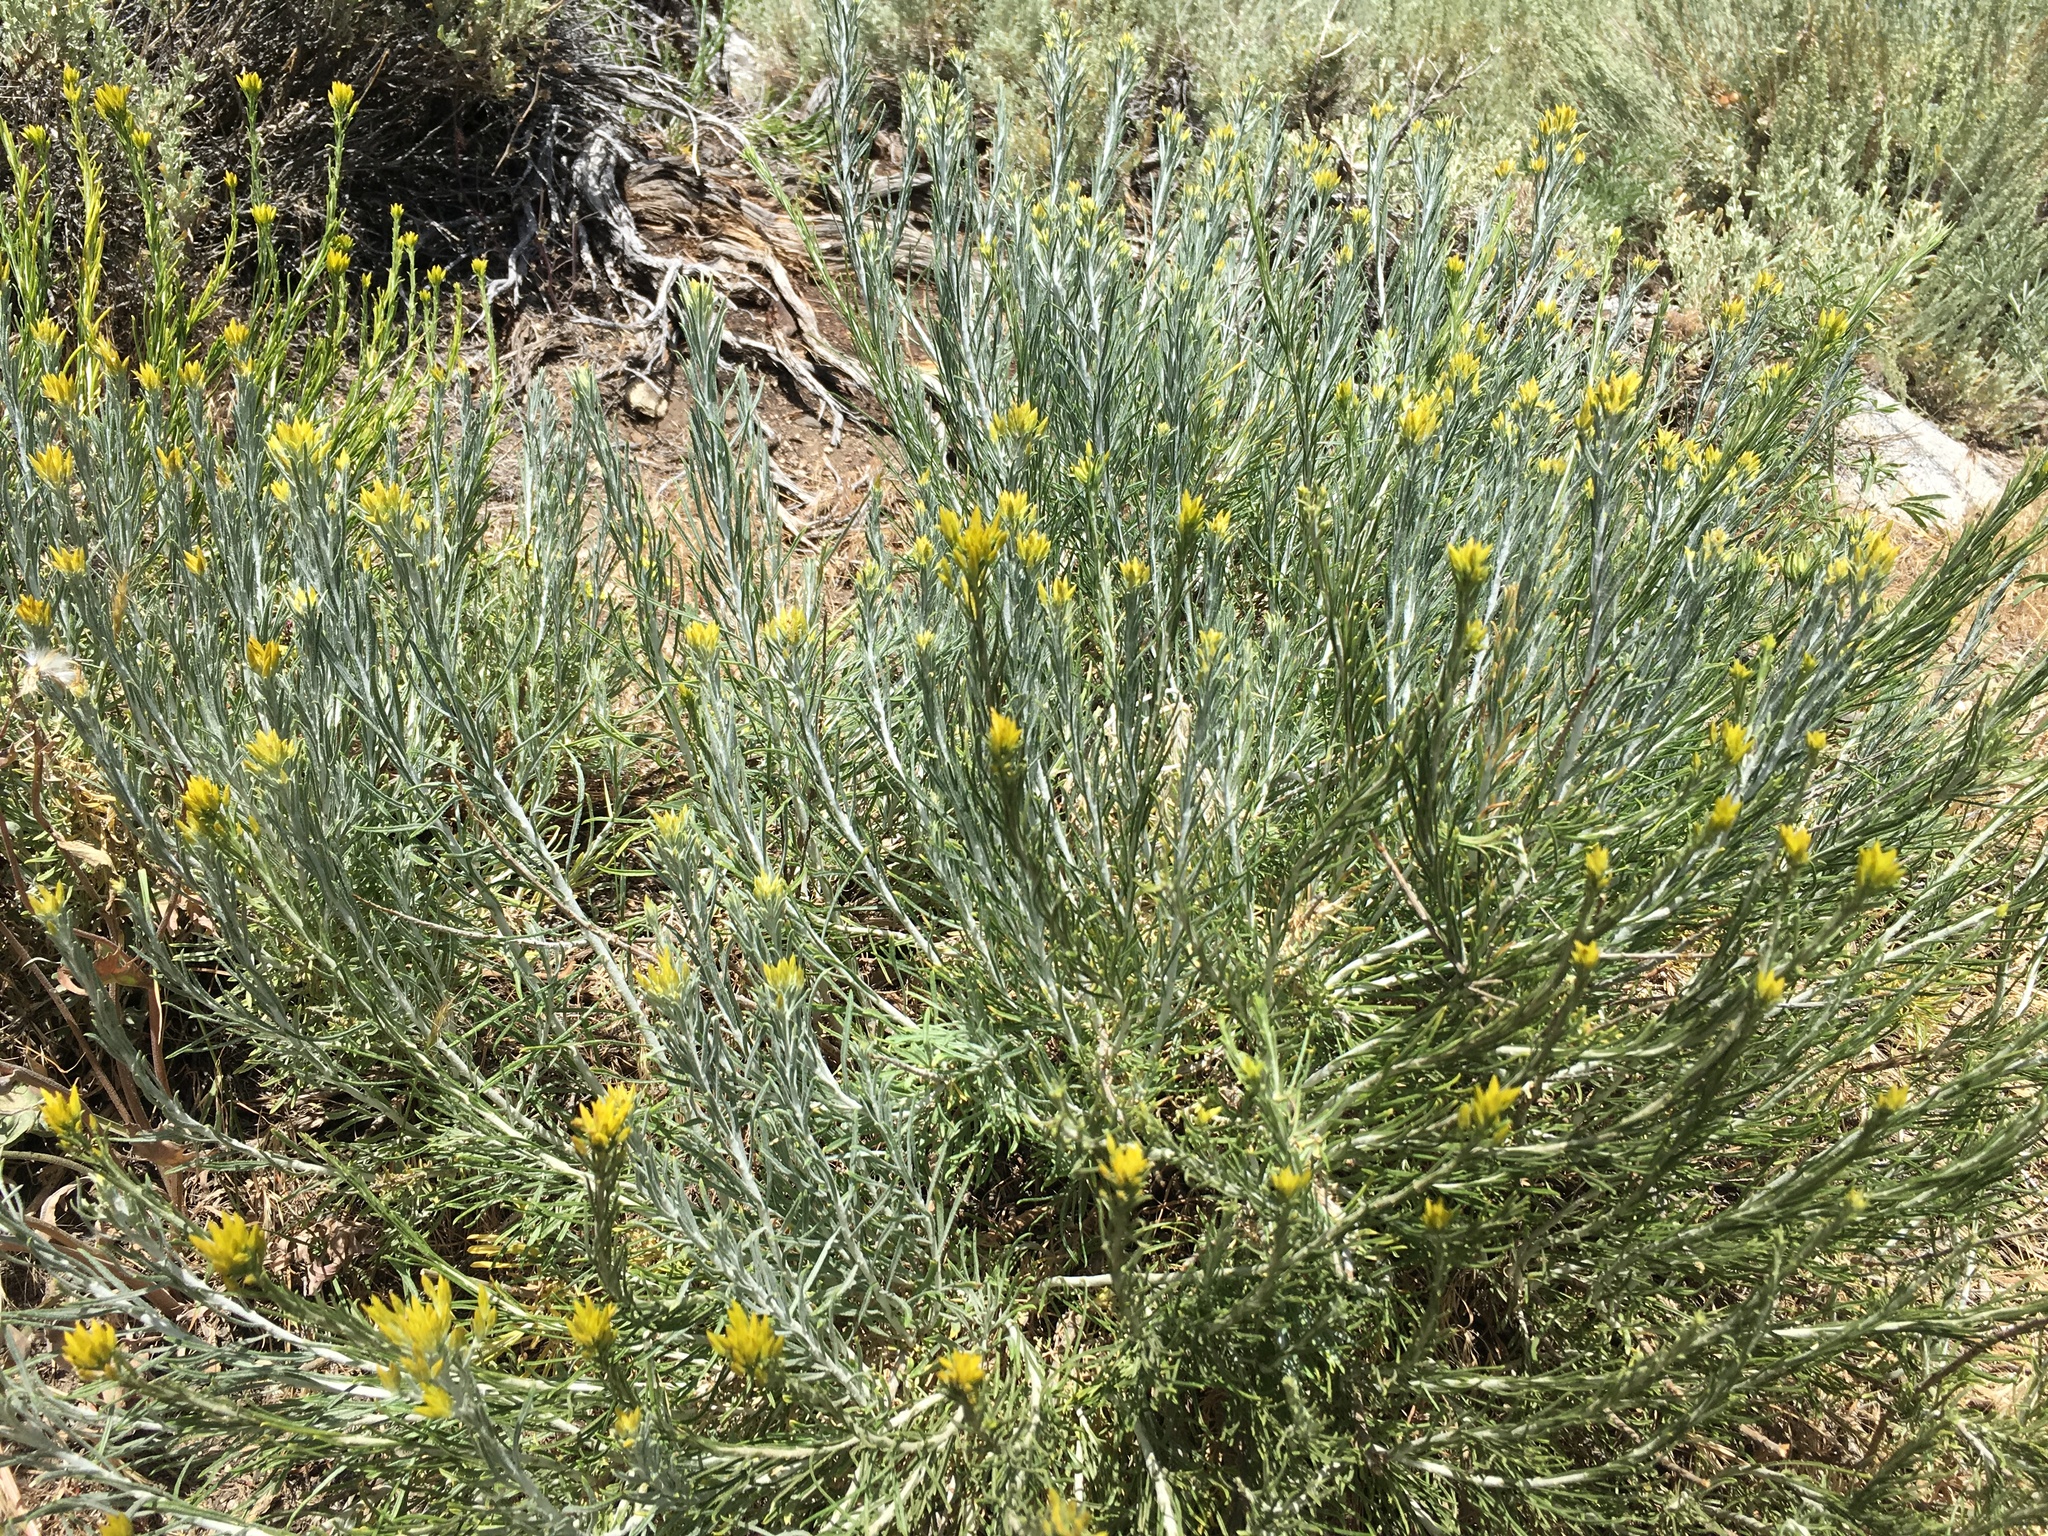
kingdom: Plantae
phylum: Tracheophyta
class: Magnoliopsida
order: Asterales
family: Asteraceae
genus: Ericameria
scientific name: Ericameria nauseosa
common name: Rubber rabbitbrush
